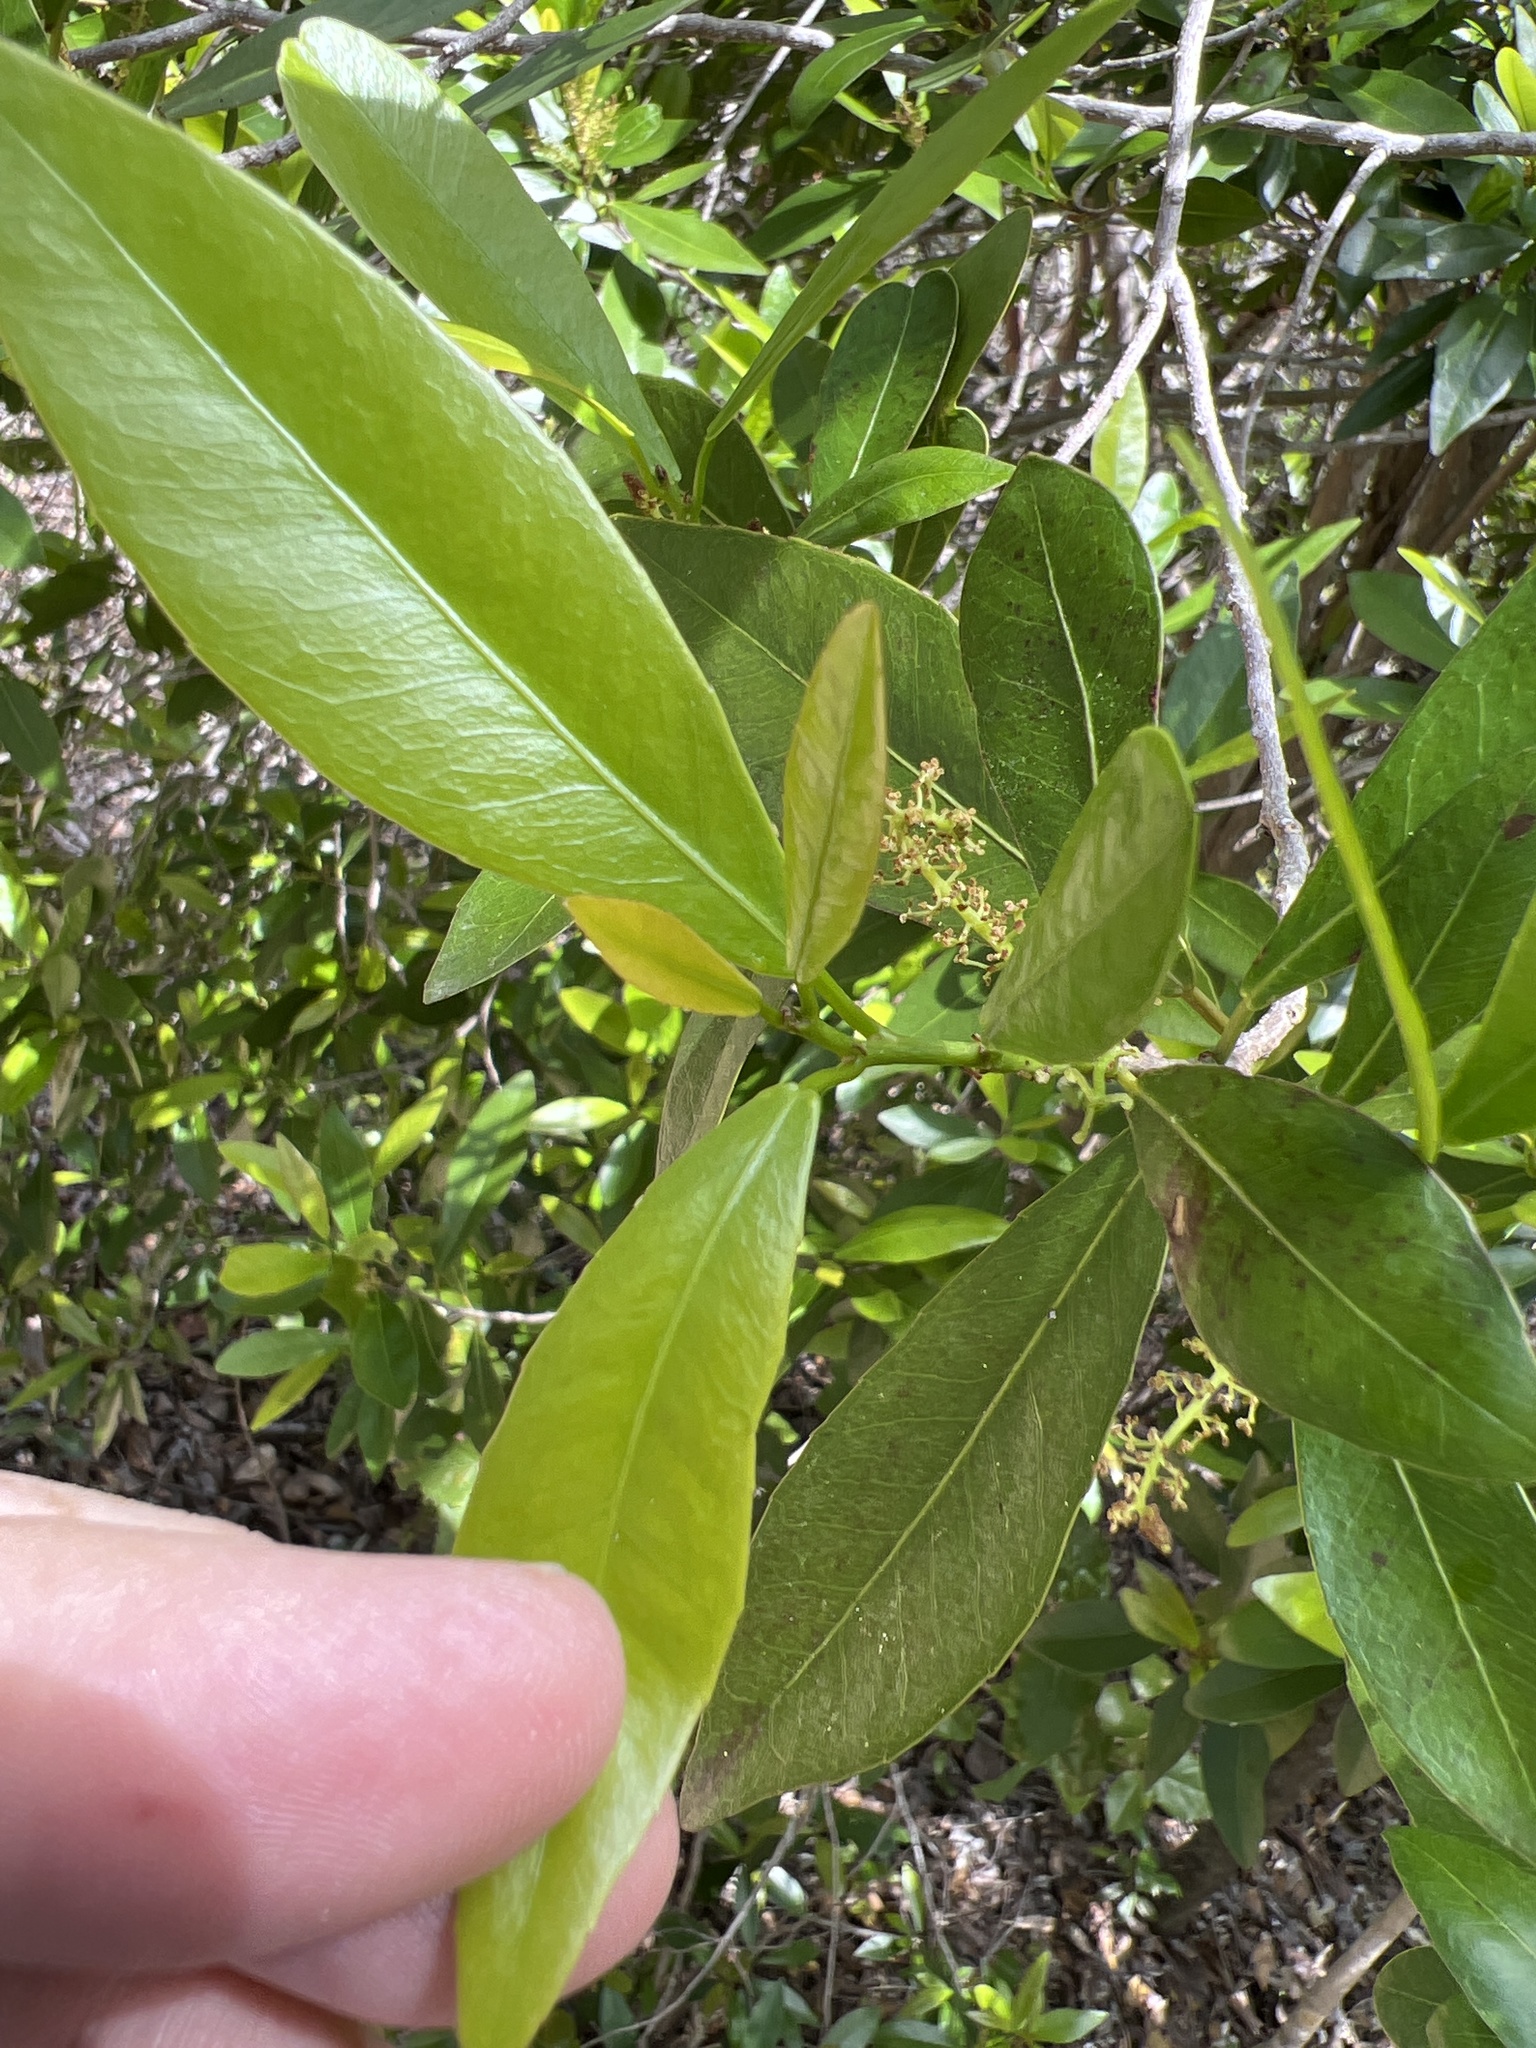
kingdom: Plantae
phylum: Tracheophyta
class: Magnoliopsida
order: Malpighiales
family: Euphorbiaceae
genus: Gymnanthes
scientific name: Gymnanthes lucida
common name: Oysterwood
